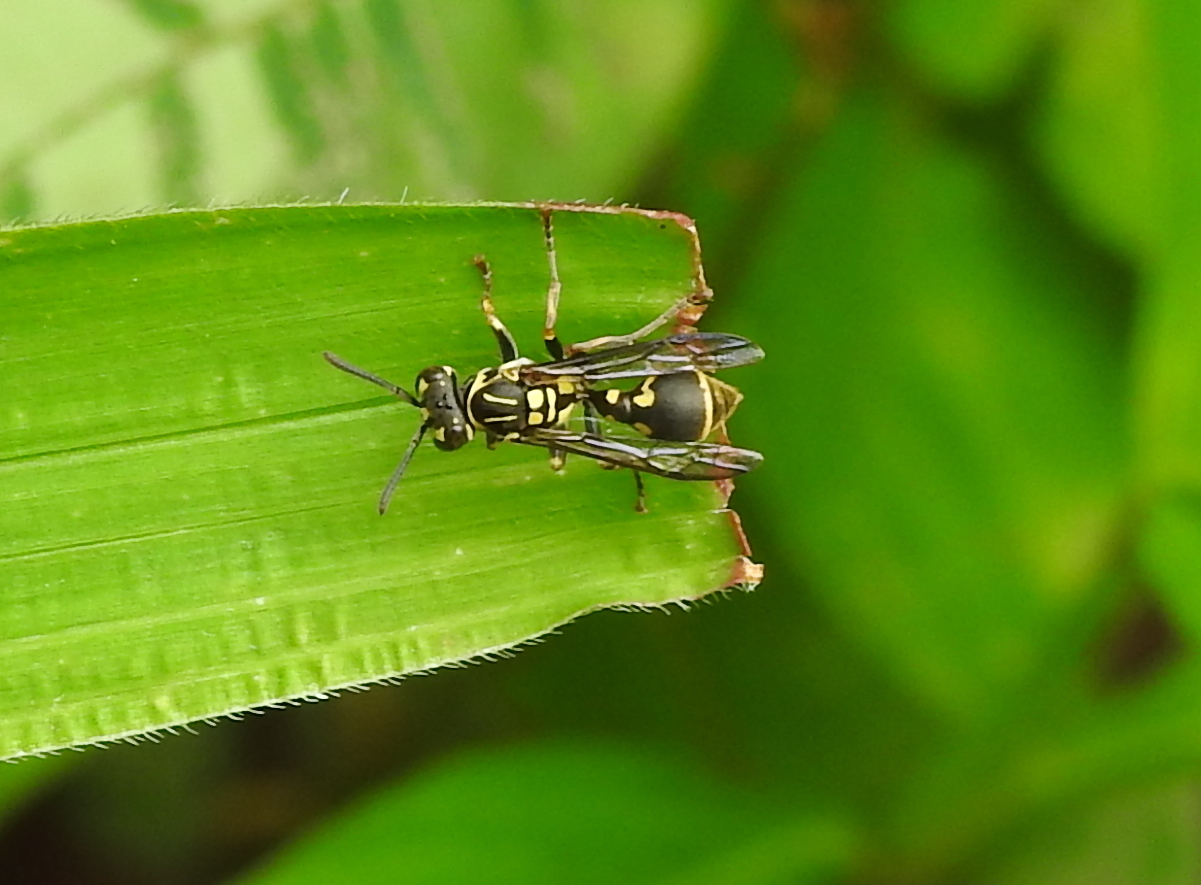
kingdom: Animalia
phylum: Arthropoda
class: Insecta
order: Hymenoptera
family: Vespidae
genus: Ropalidia
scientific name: Ropalidia flavopicta
